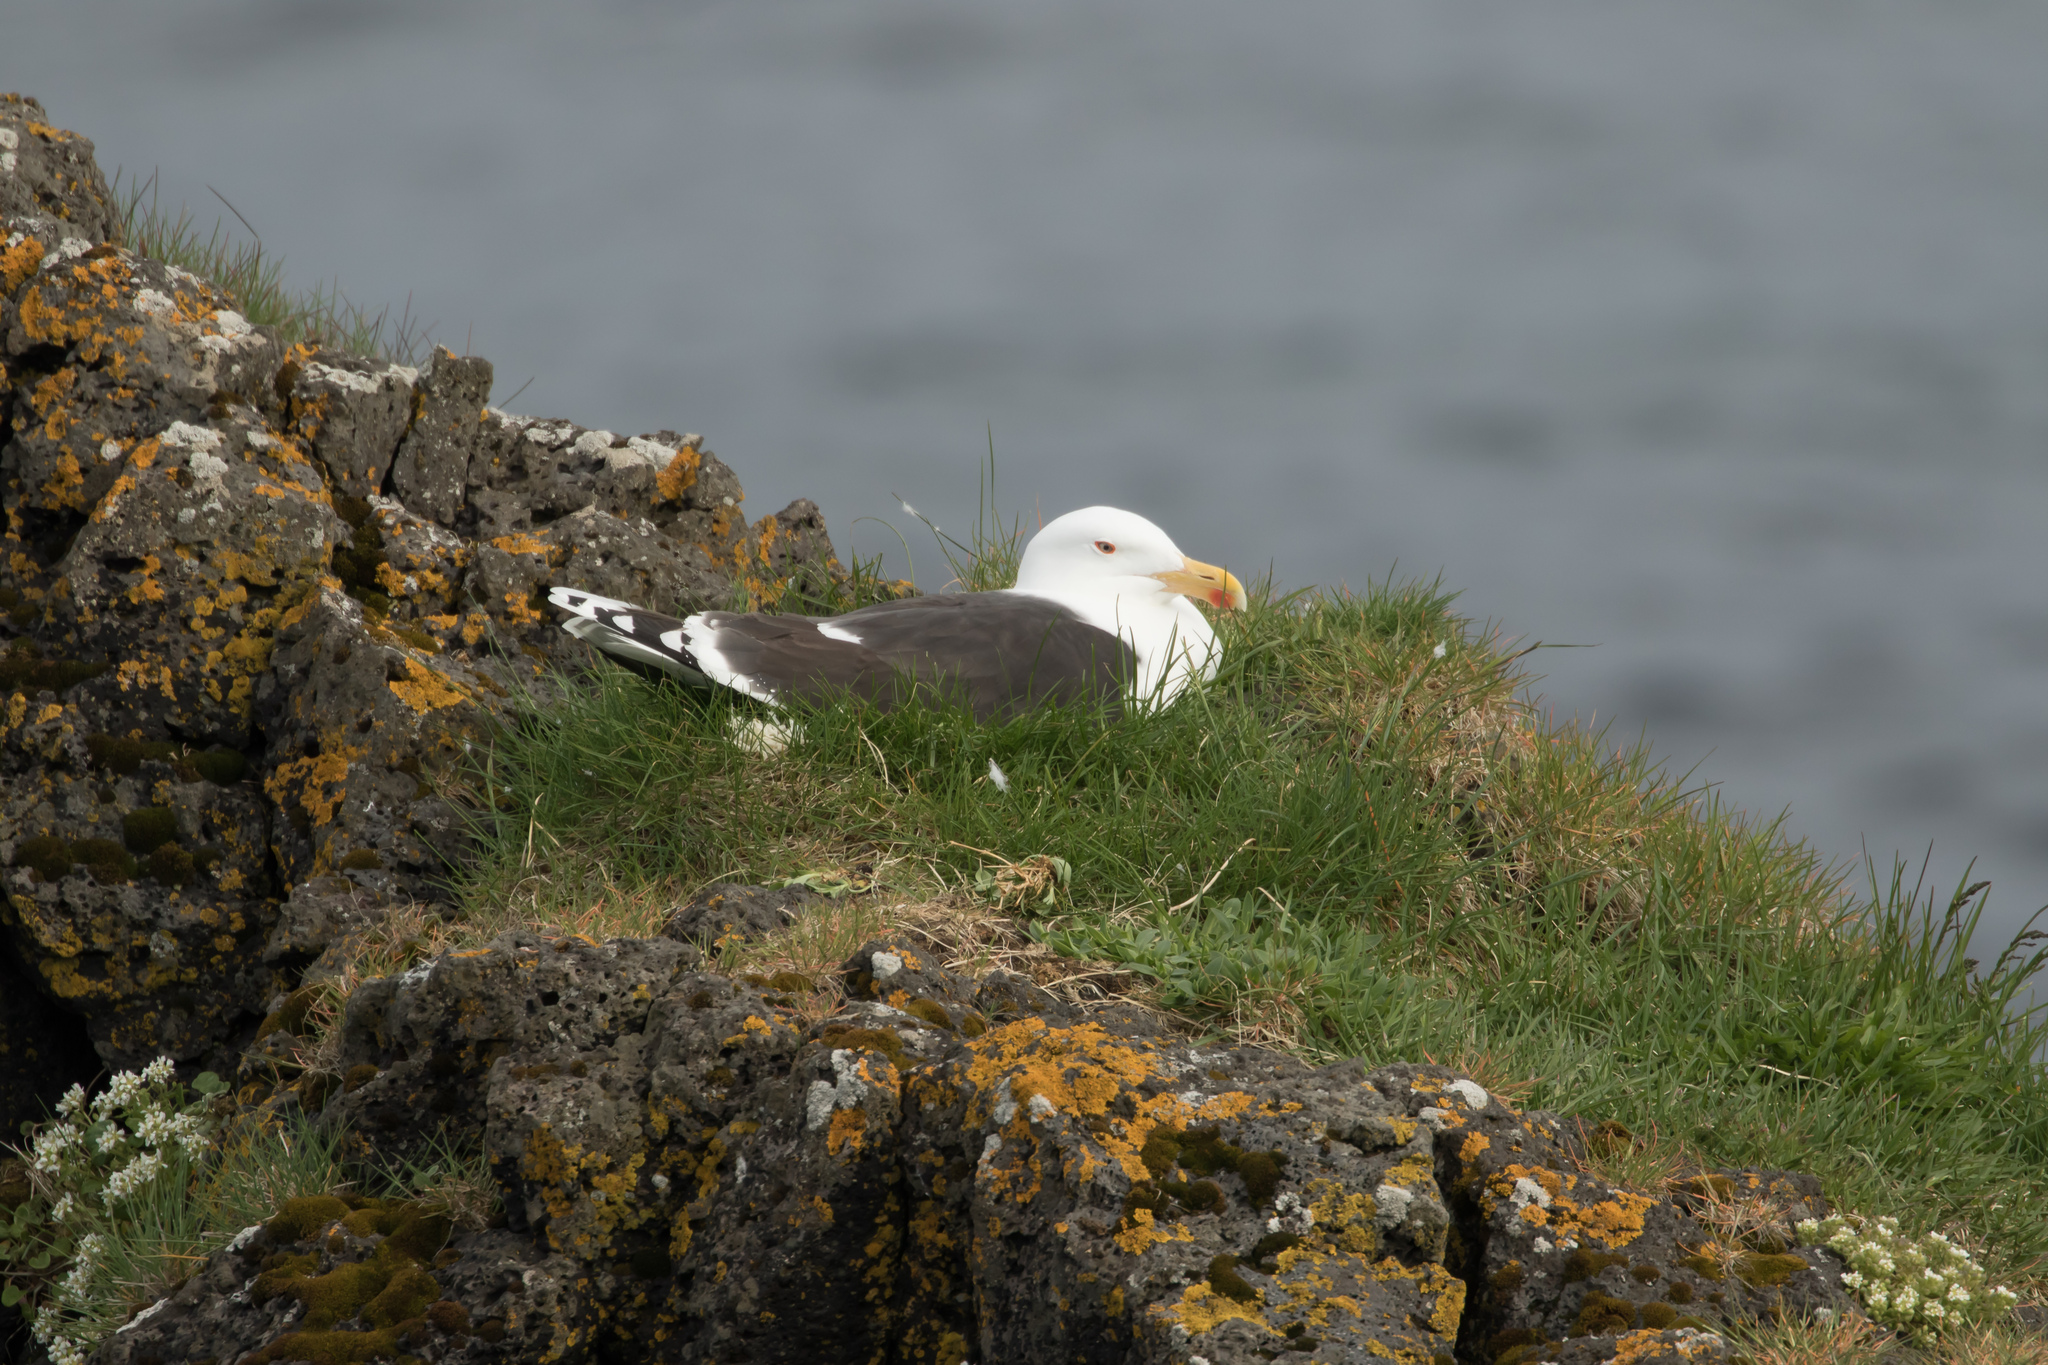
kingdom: Animalia
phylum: Chordata
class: Aves
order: Charadriiformes
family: Laridae
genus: Larus
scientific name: Larus marinus
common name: Great black-backed gull
